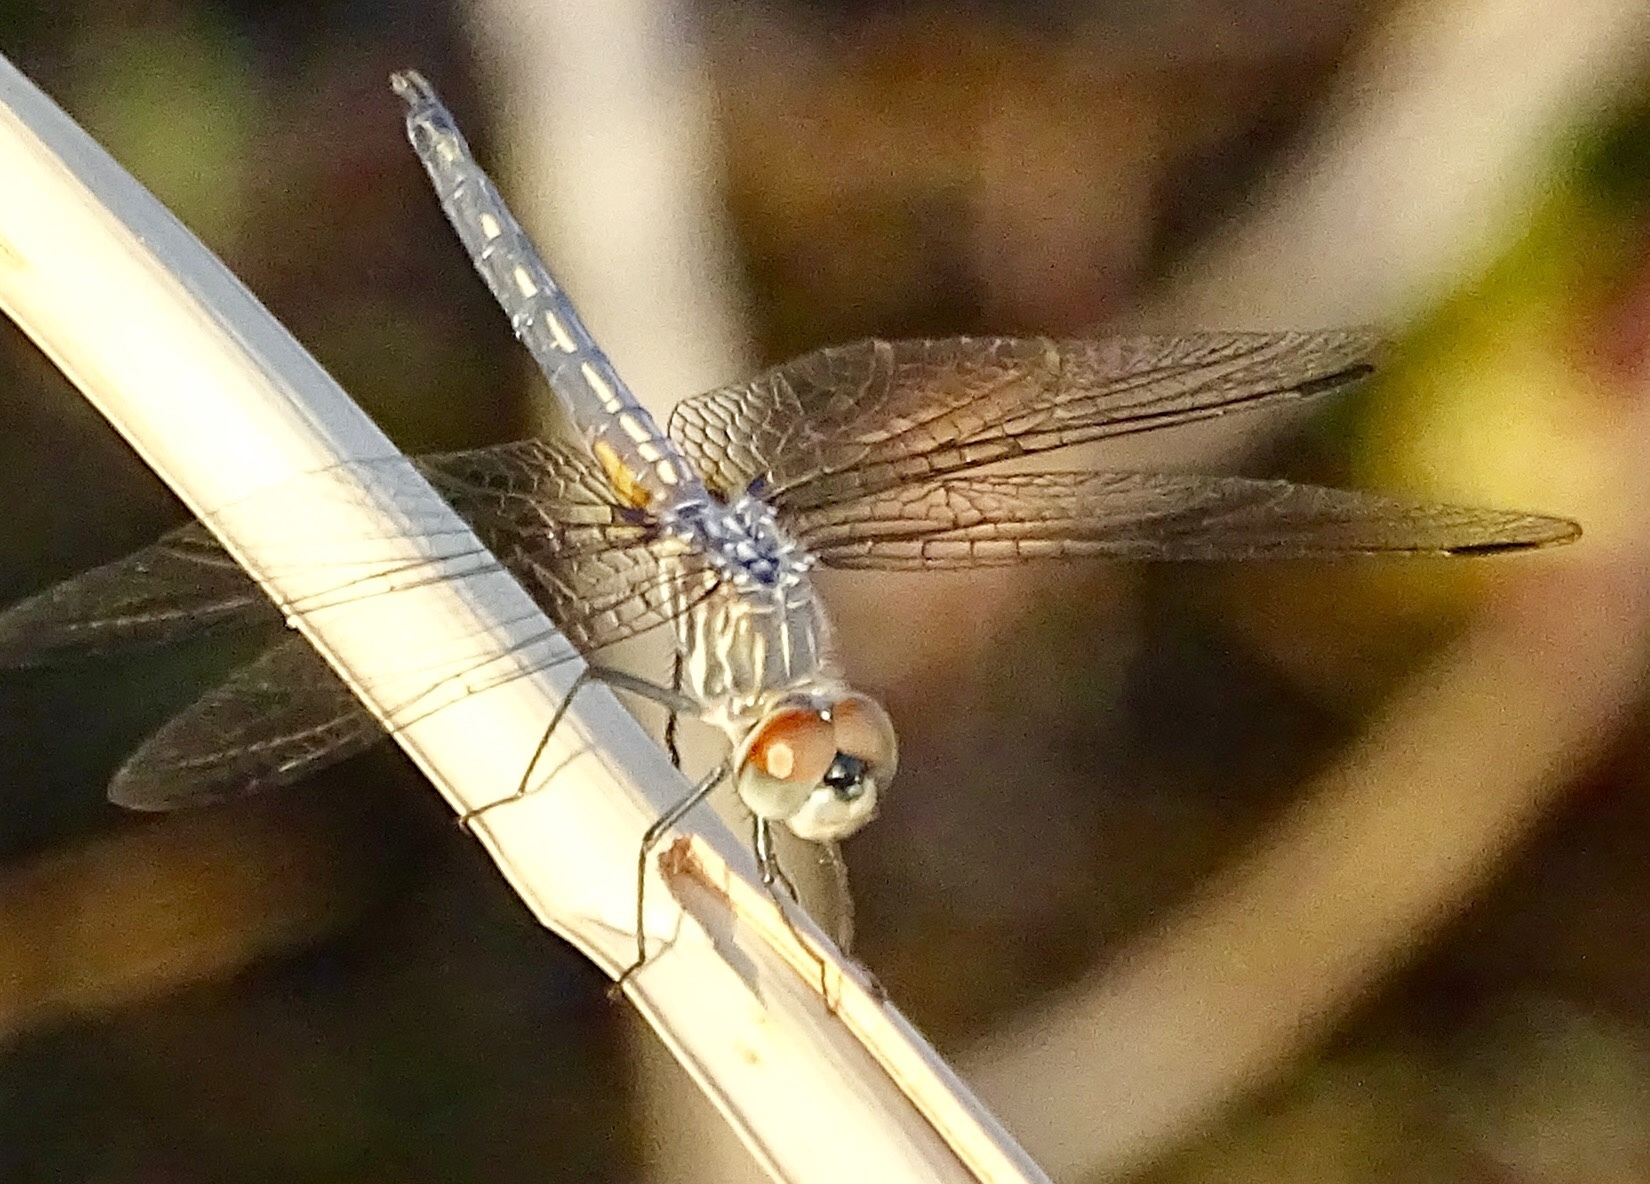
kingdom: Animalia
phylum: Arthropoda
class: Insecta
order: Odonata
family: Libellulidae
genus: Pachydiplax
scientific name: Pachydiplax longipennis
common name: Blue dasher
